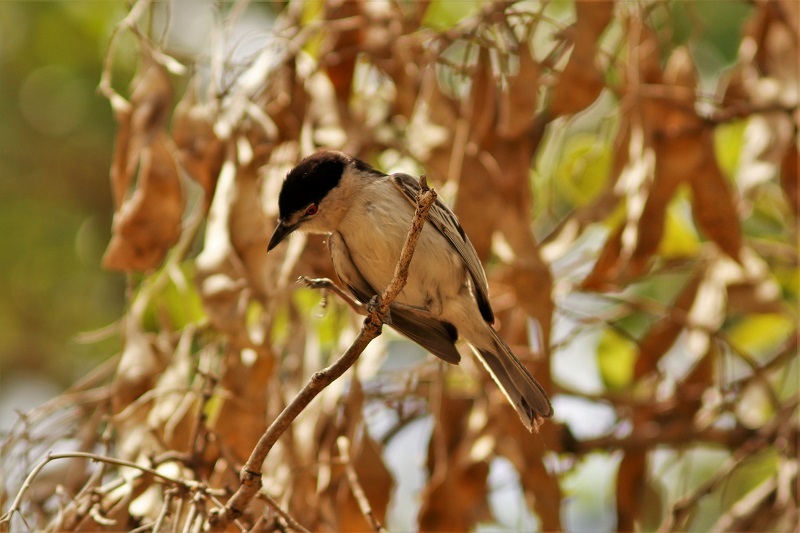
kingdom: Animalia
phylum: Chordata
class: Aves
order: Passeriformes
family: Malaconotidae
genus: Dryoscopus
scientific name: Dryoscopus cubla
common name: Black-backed puffback
